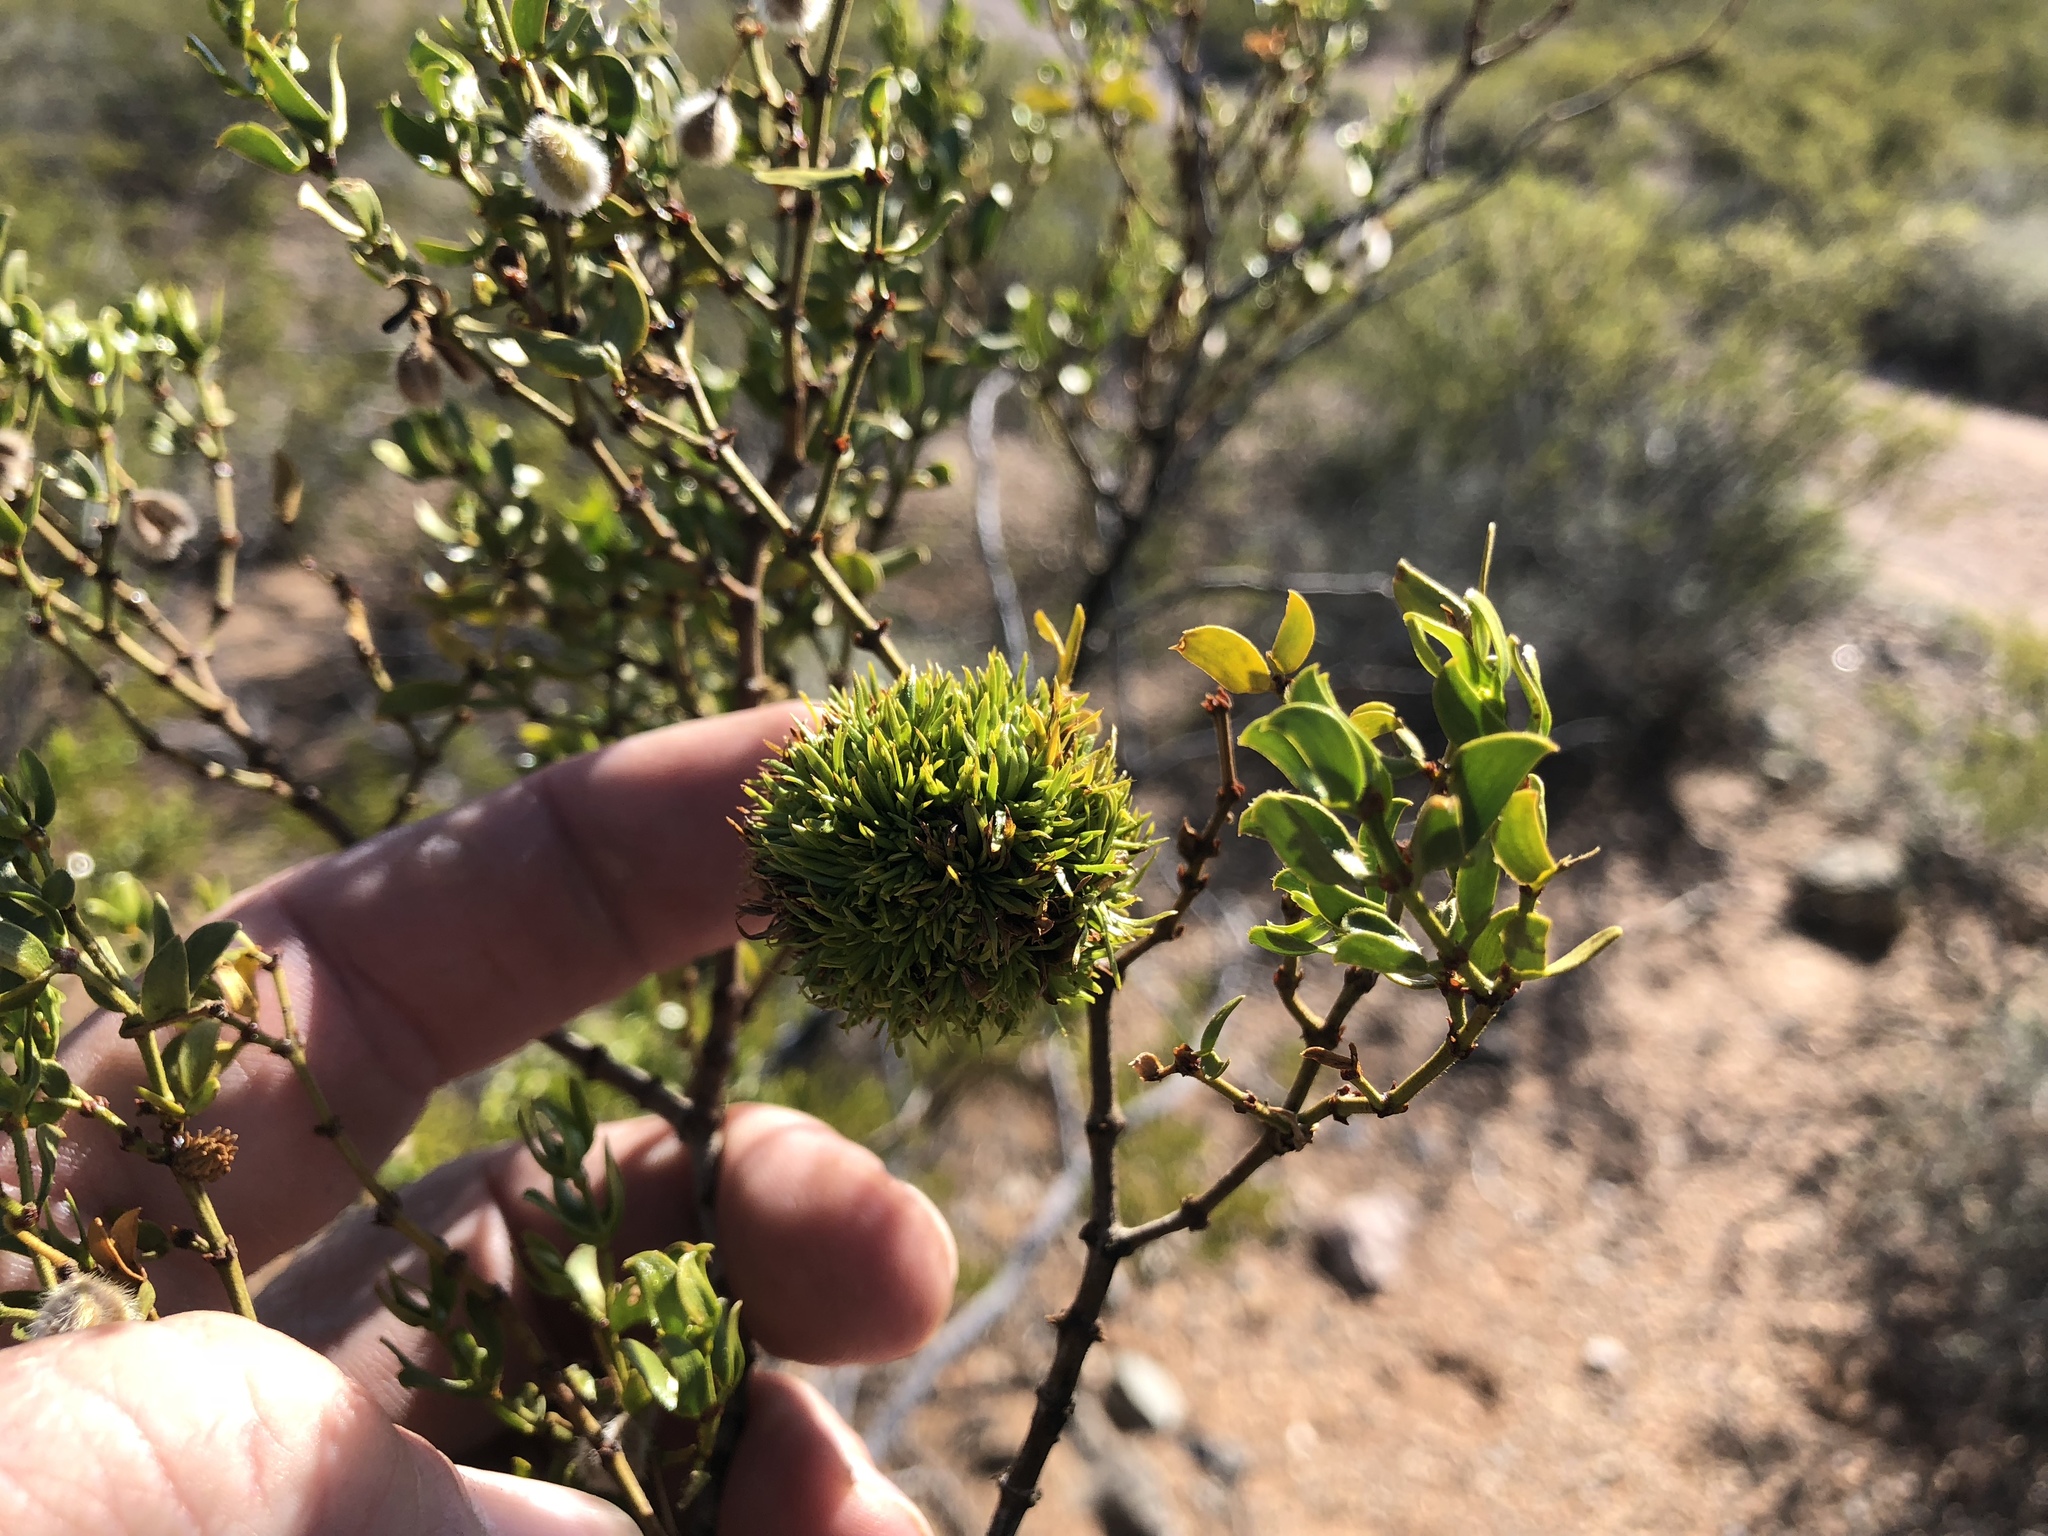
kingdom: Animalia
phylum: Arthropoda
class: Insecta
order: Diptera
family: Cecidomyiidae
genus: Asphondylia
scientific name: Asphondylia auripila
